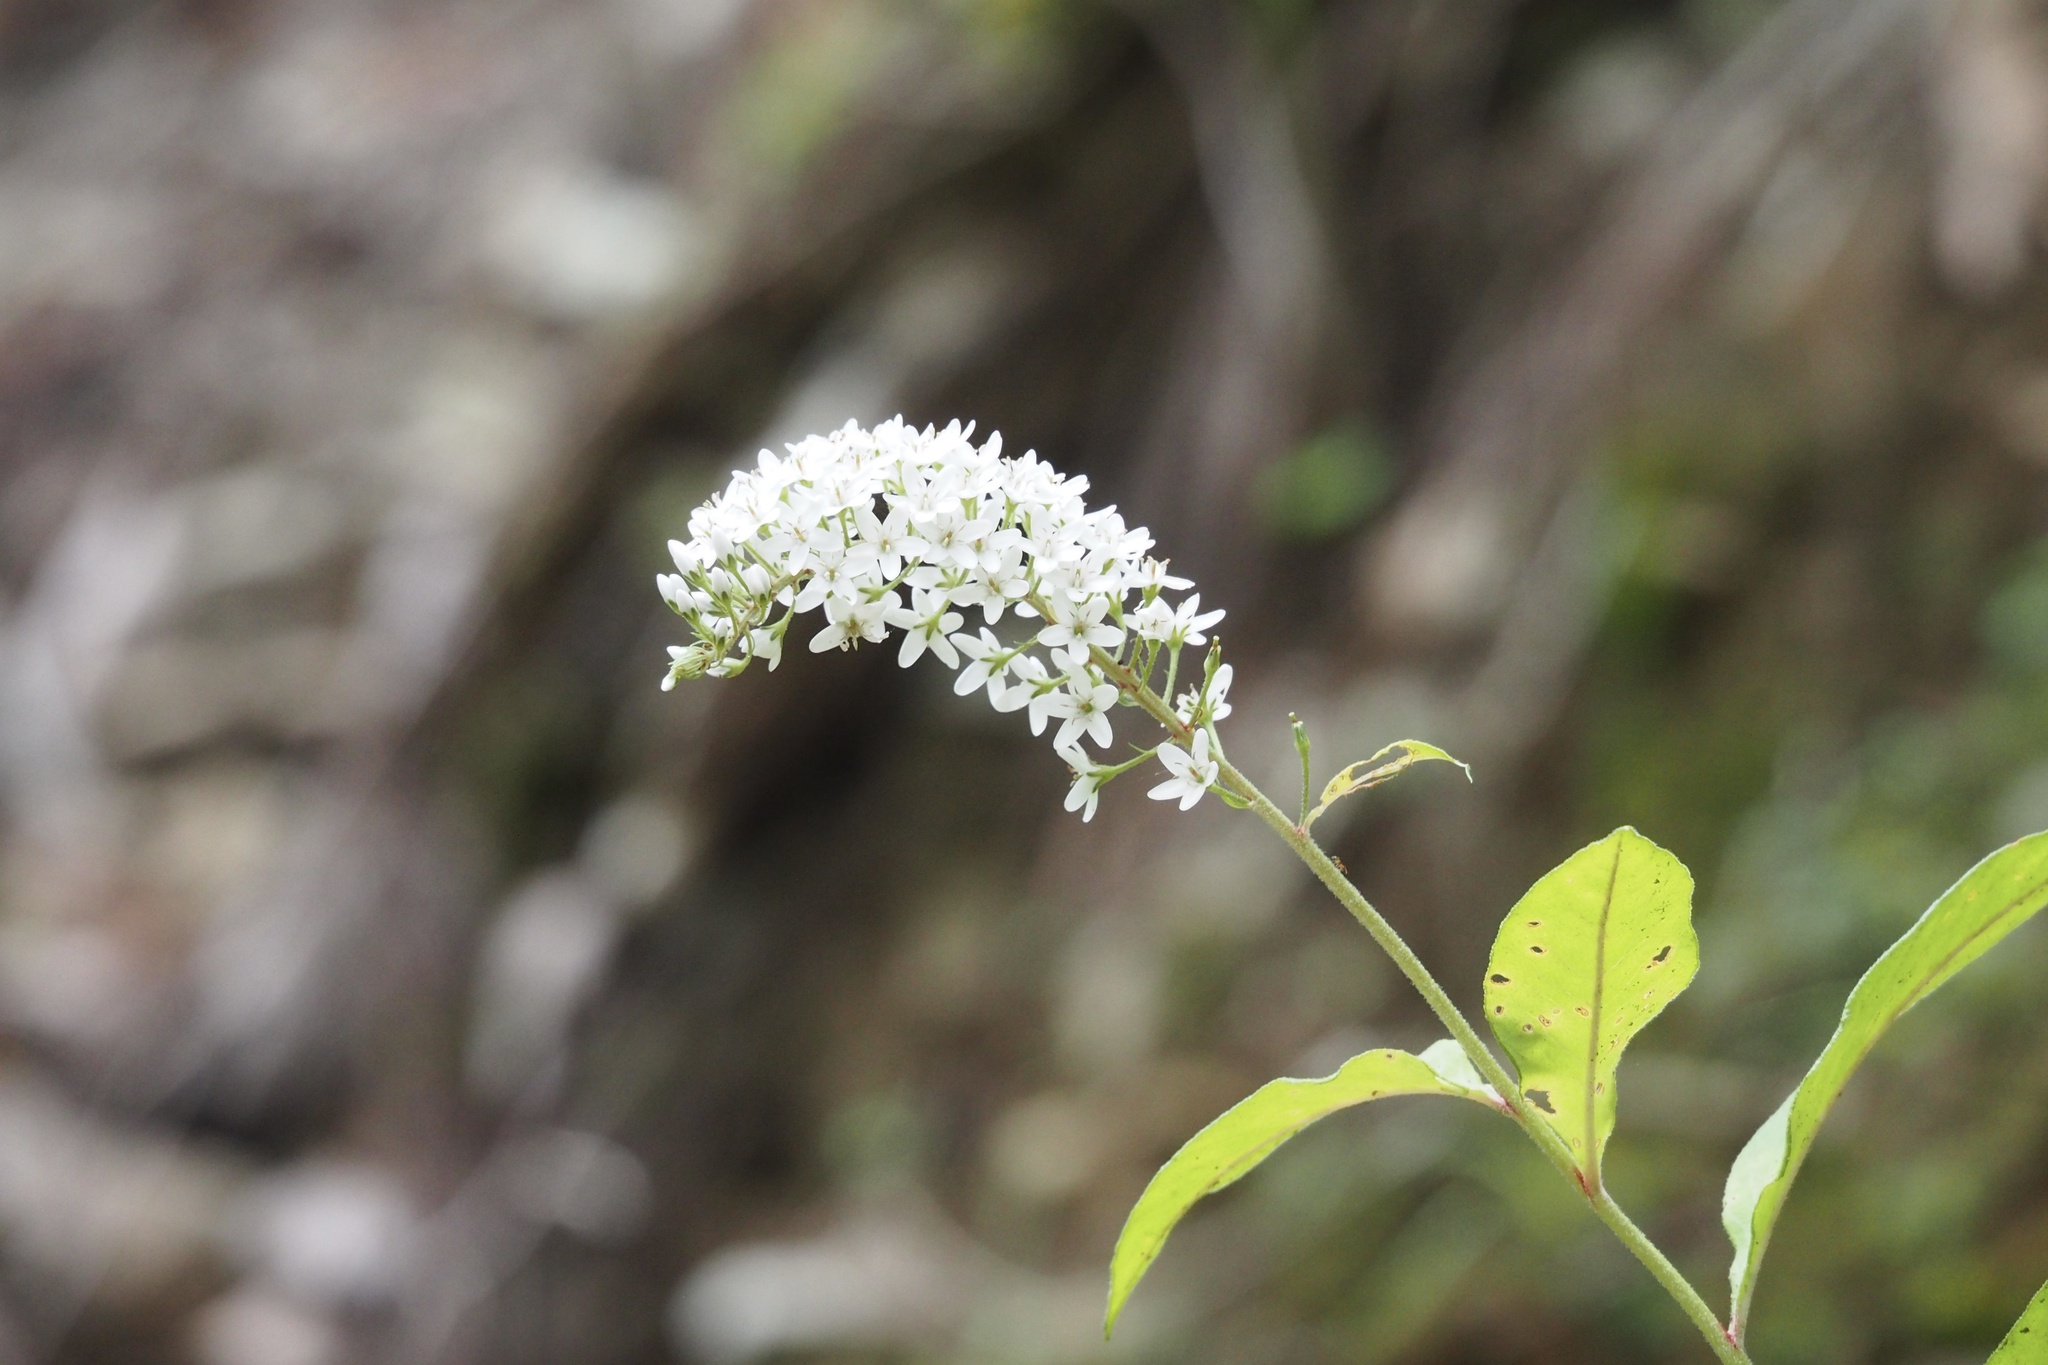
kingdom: Plantae
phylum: Tracheophyta
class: Magnoliopsida
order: Ericales
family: Primulaceae
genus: Lysimachia
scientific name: Lysimachia clethroides
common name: Gooseneck loosestrife
